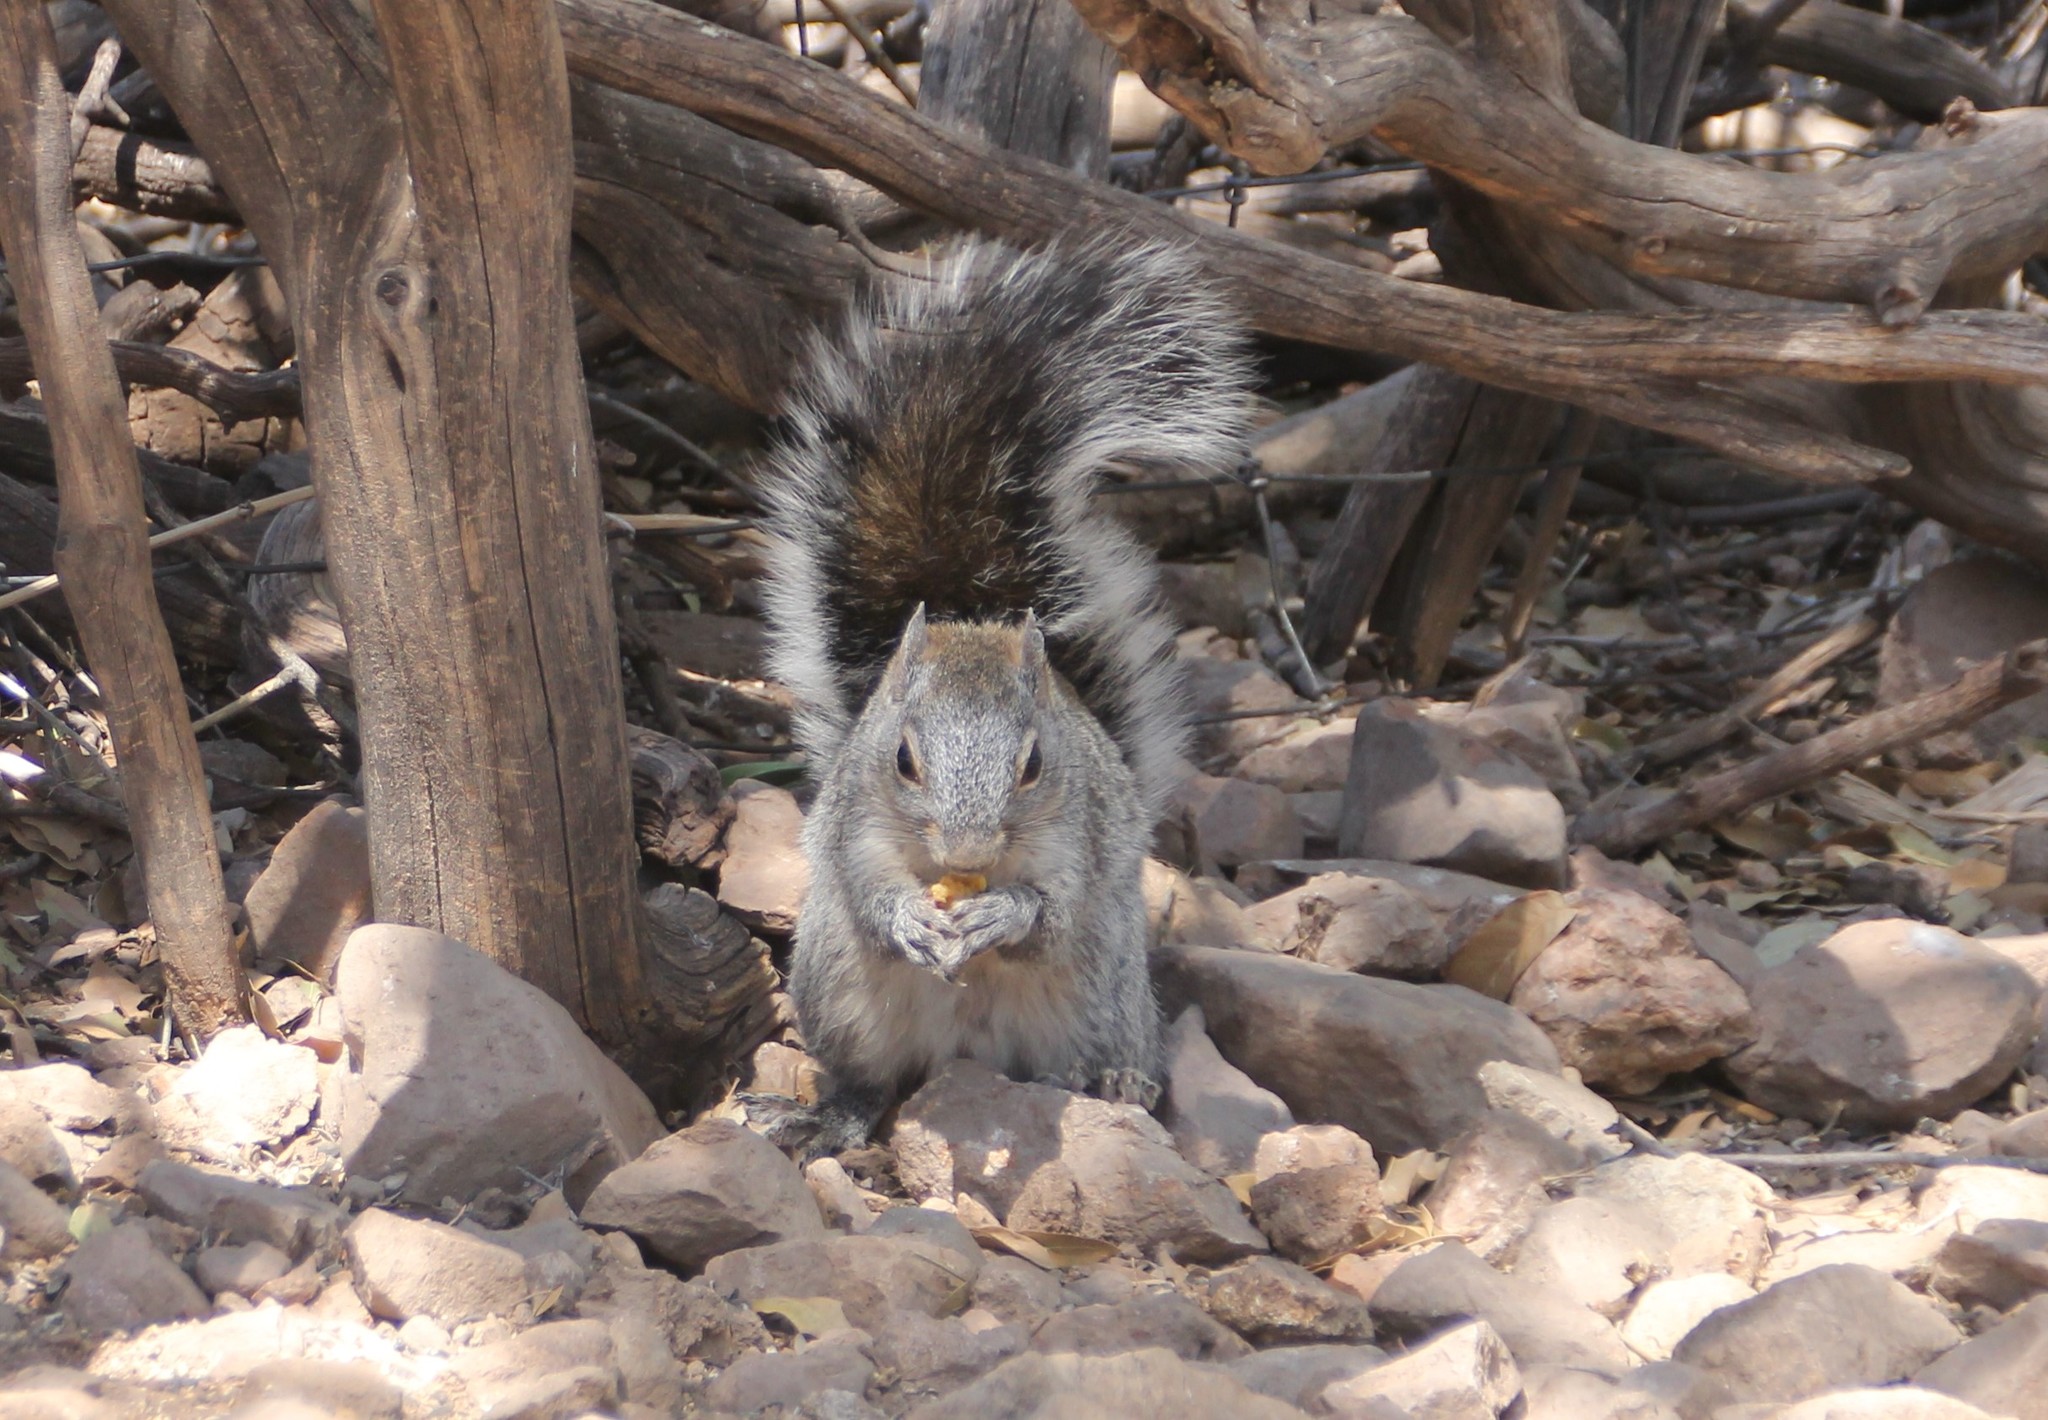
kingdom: Animalia
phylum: Chordata
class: Mammalia
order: Rodentia
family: Sciuridae
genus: Sciurus
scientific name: Sciurus arizonensis
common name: Arizona gray squirrel
